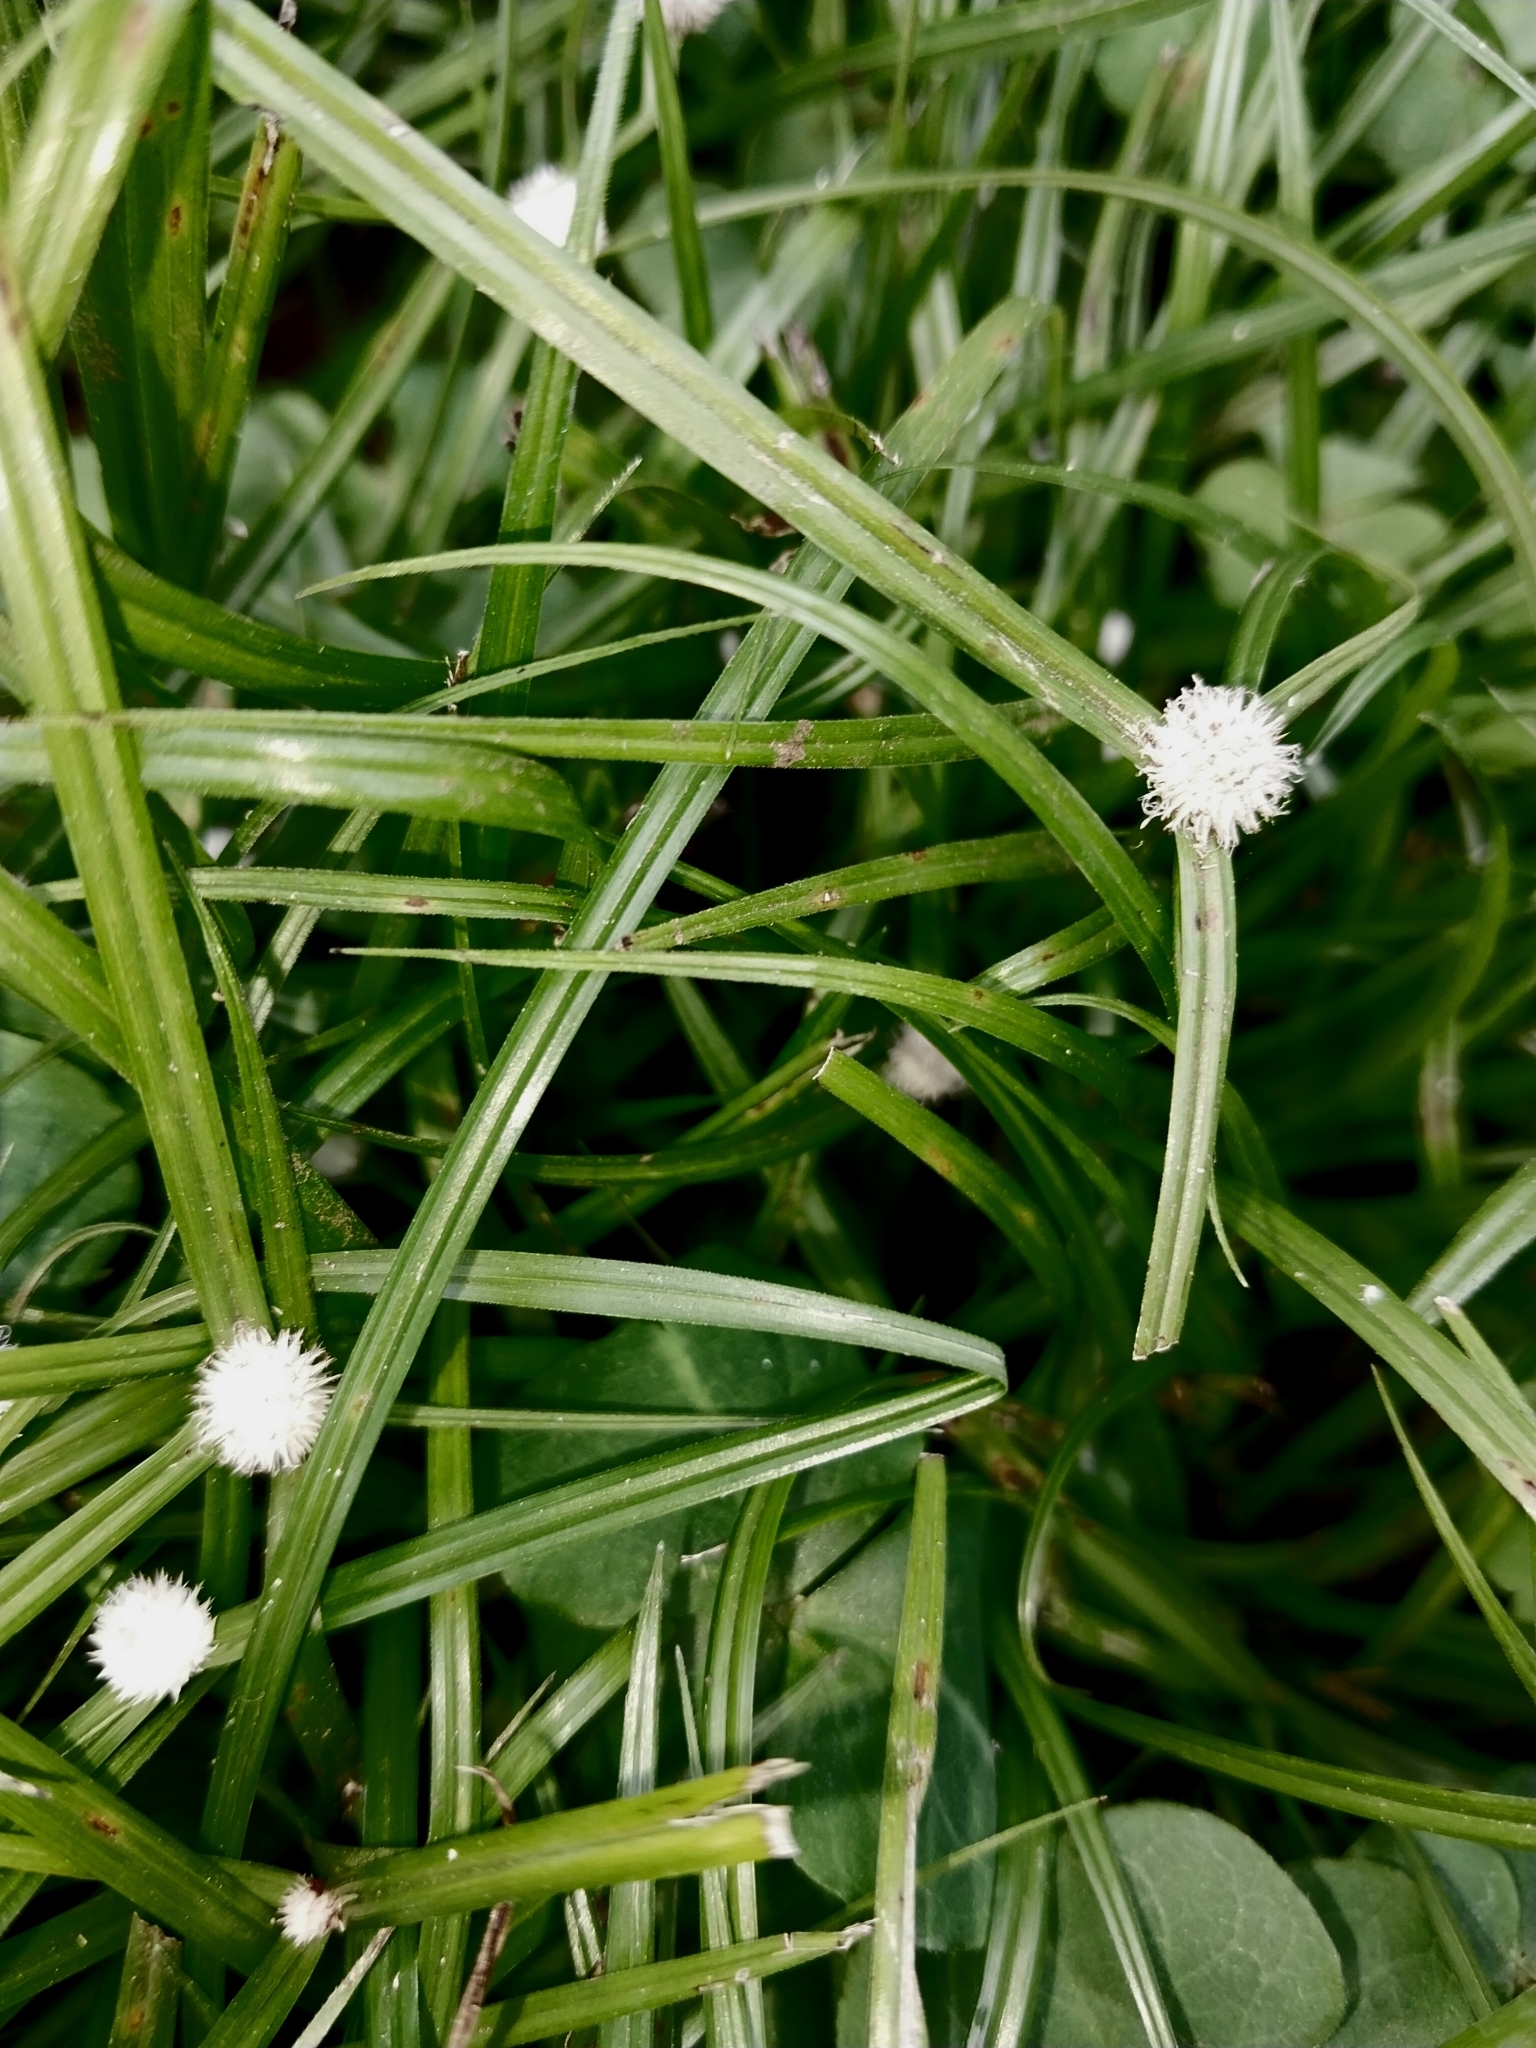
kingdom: Plantae
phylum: Tracheophyta
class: Liliopsida
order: Poales
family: Cyperaceae
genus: Cyperus
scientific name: Cyperus mindorensis
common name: Flatsedge
